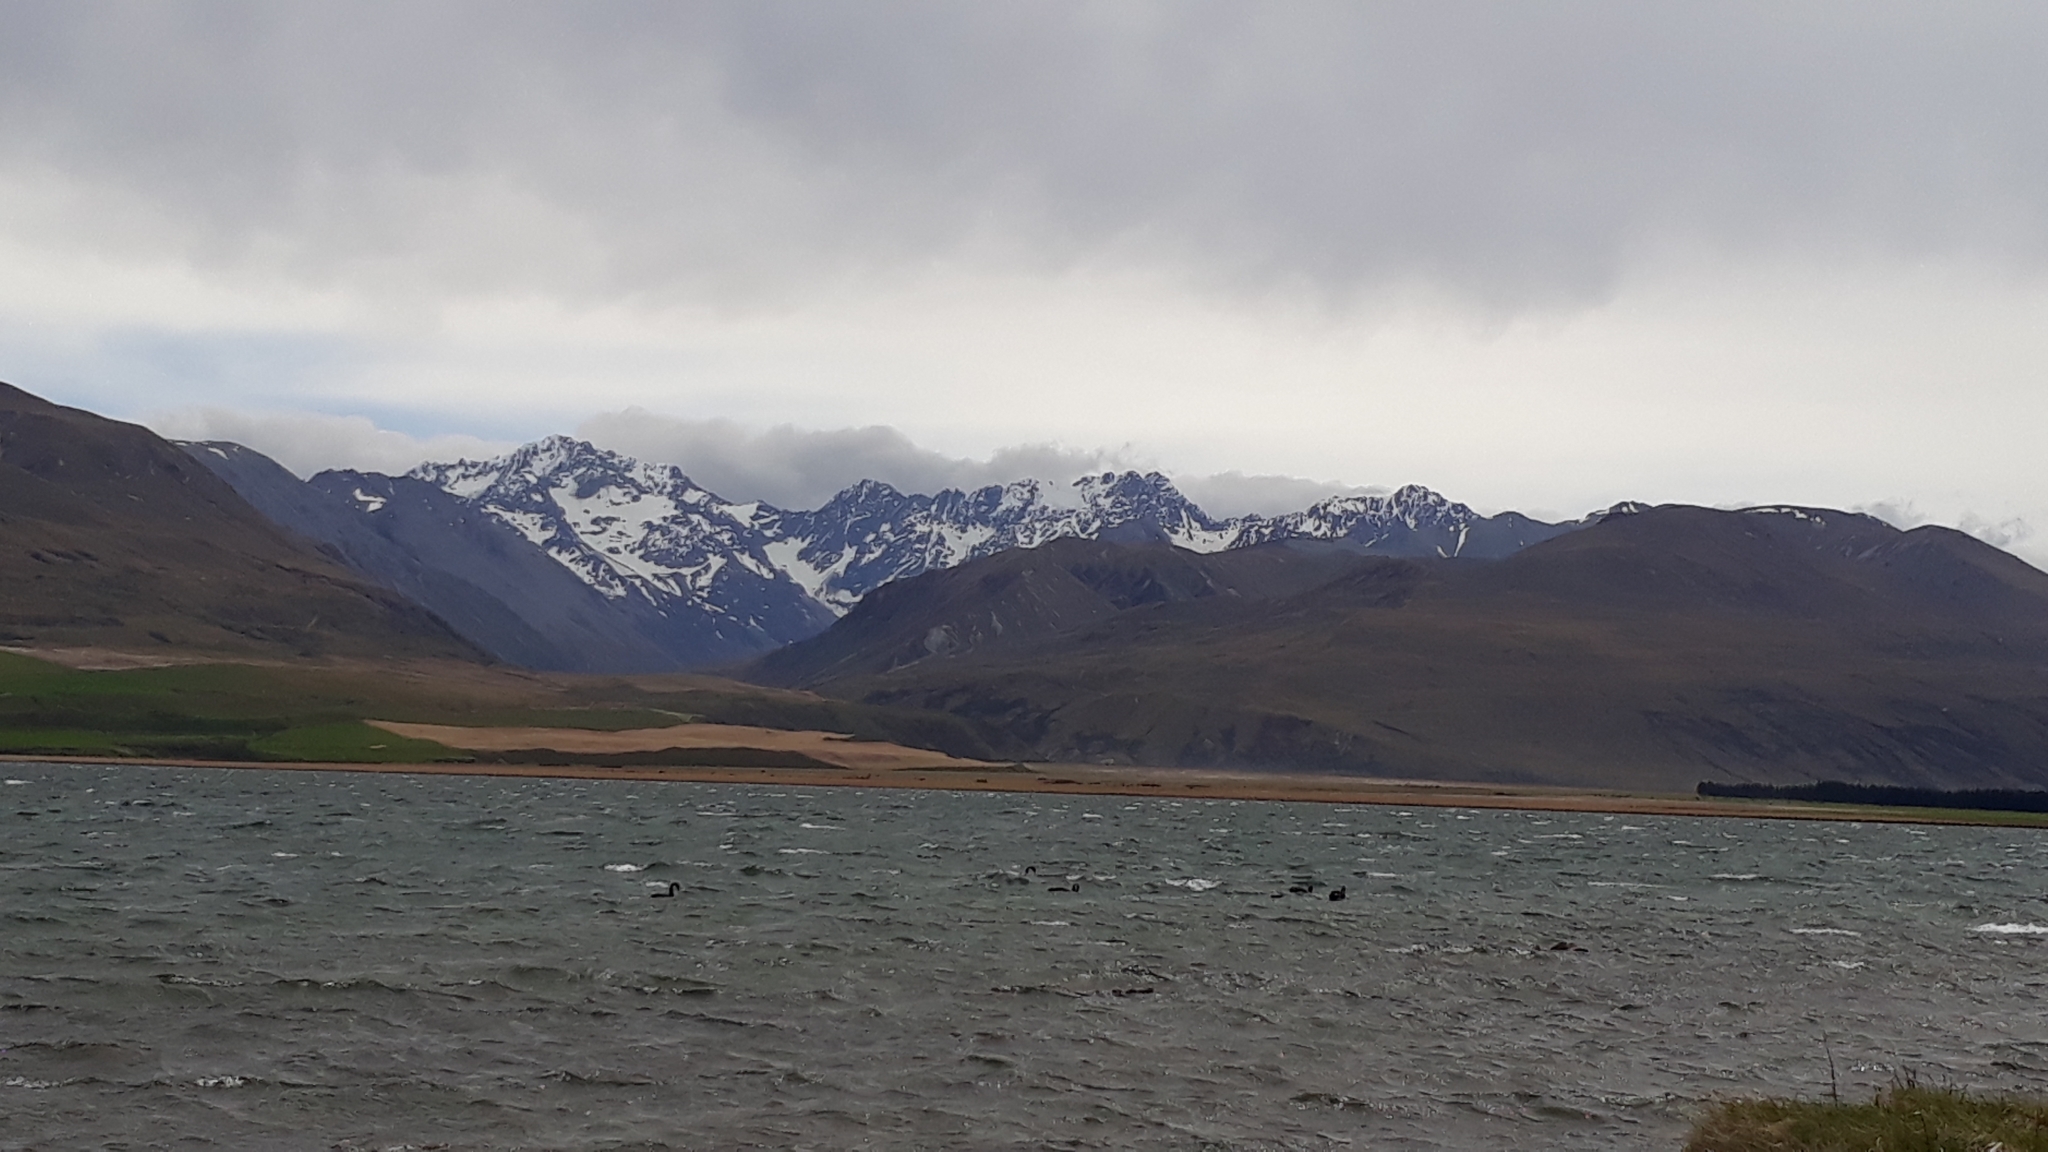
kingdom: Animalia
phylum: Chordata
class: Aves
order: Anseriformes
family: Anatidae
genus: Cygnus
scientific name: Cygnus atratus
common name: Black swan
